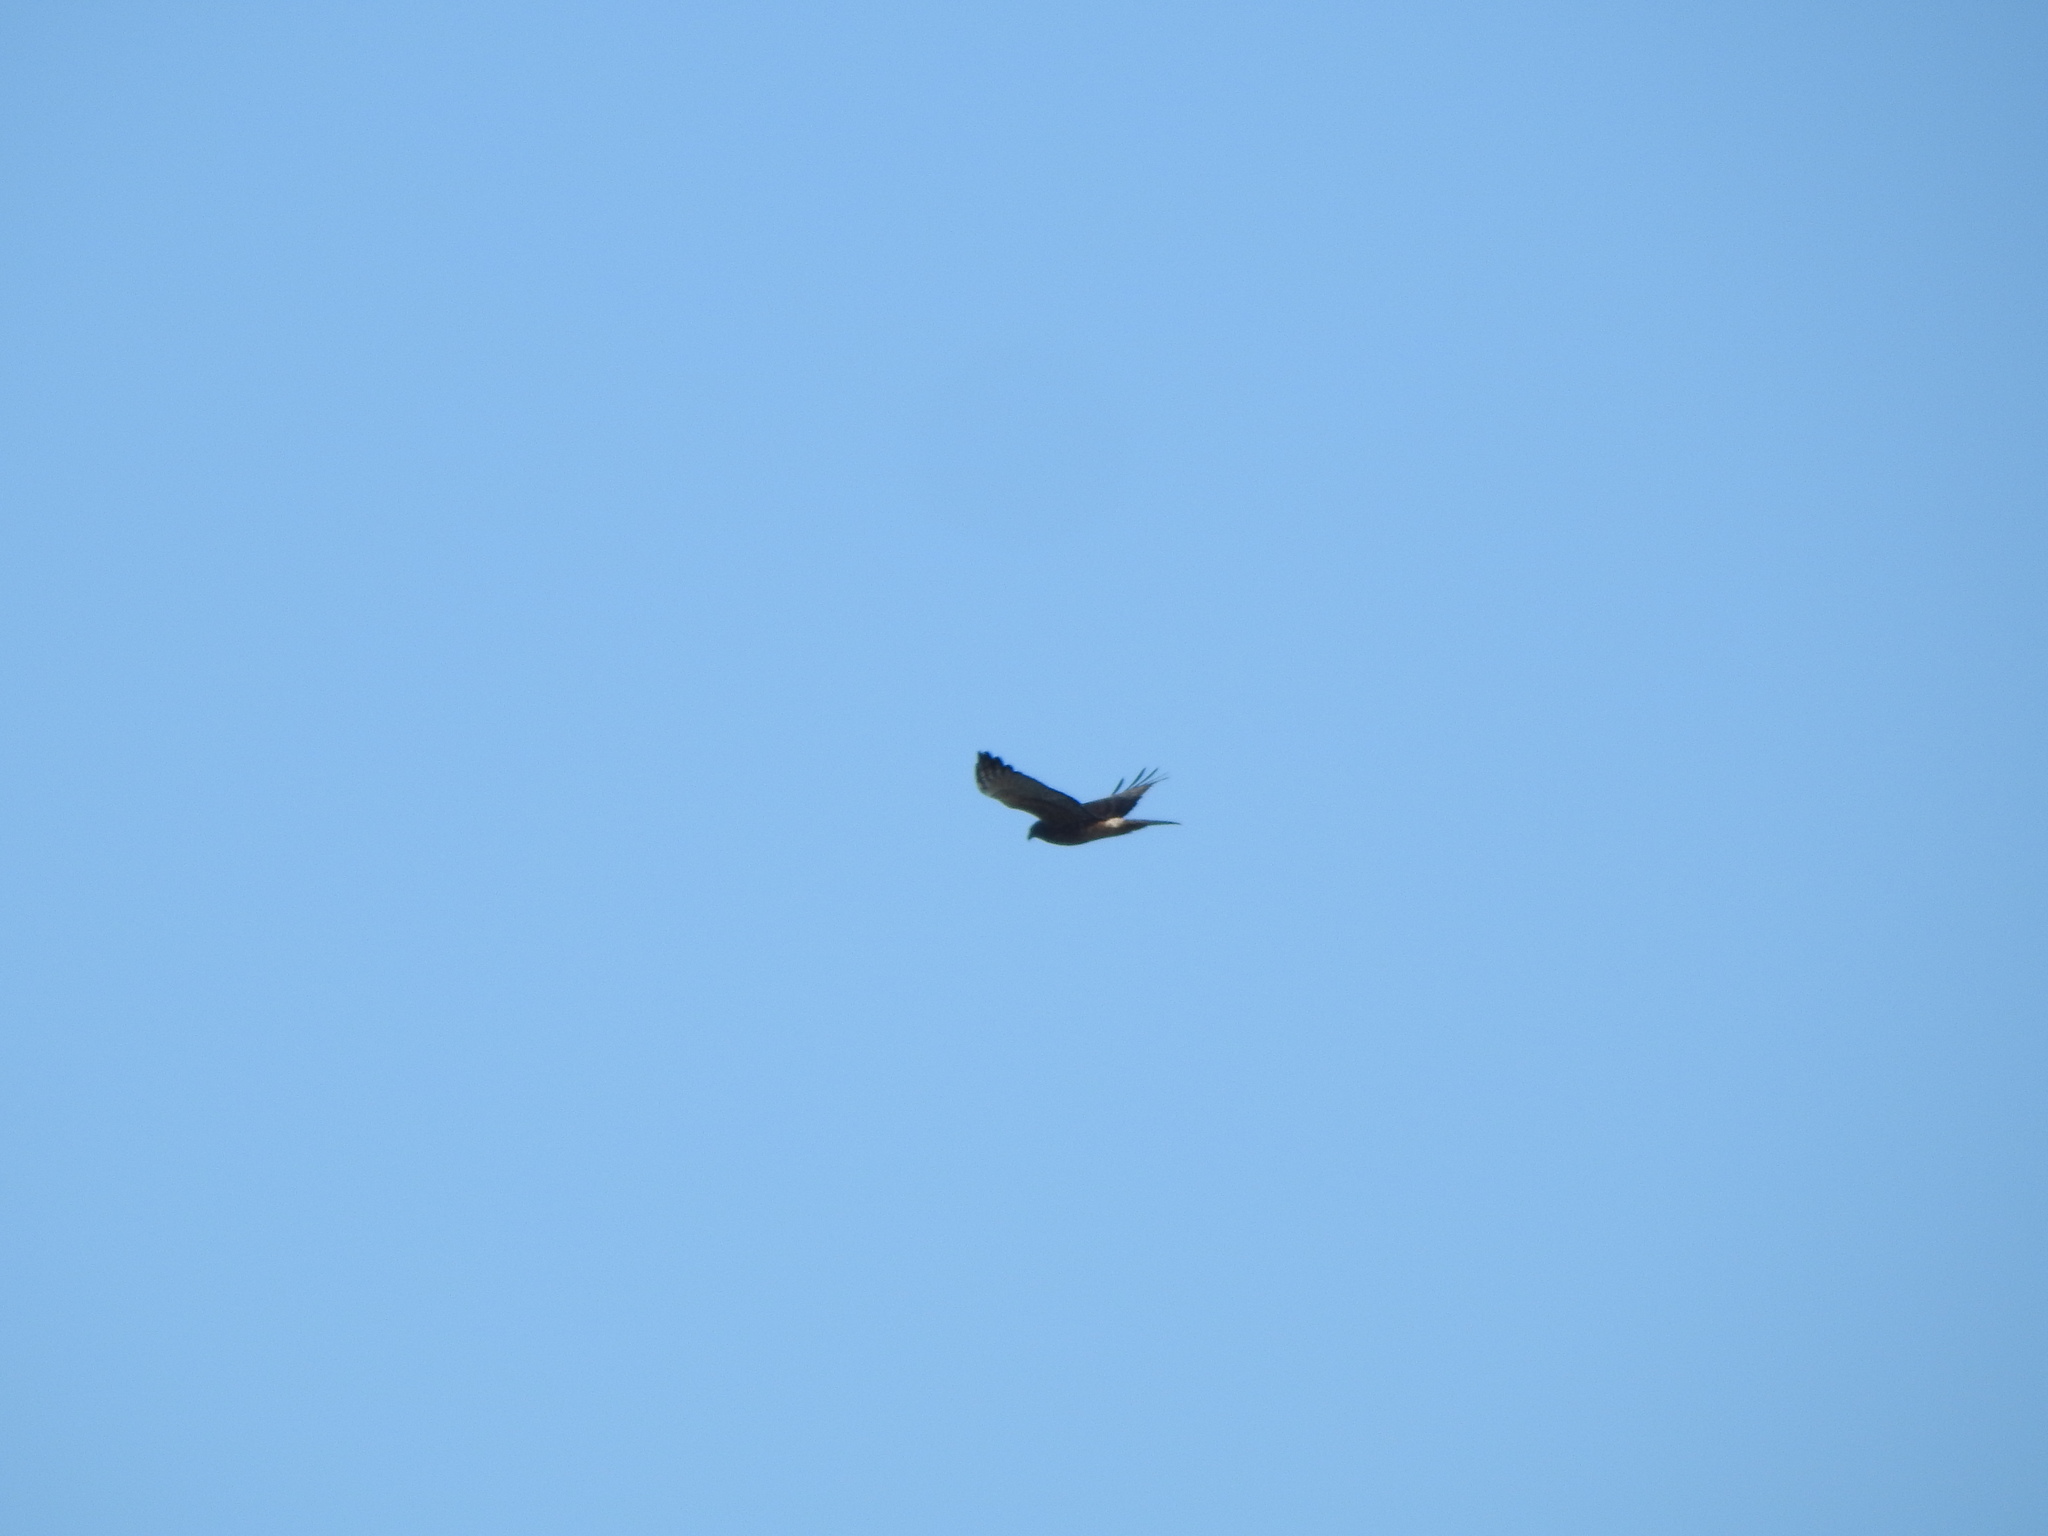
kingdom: Animalia
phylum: Chordata
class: Aves
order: Accipitriformes
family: Accipitridae
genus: Circus
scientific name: Circus approximans
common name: Swamp harrier
